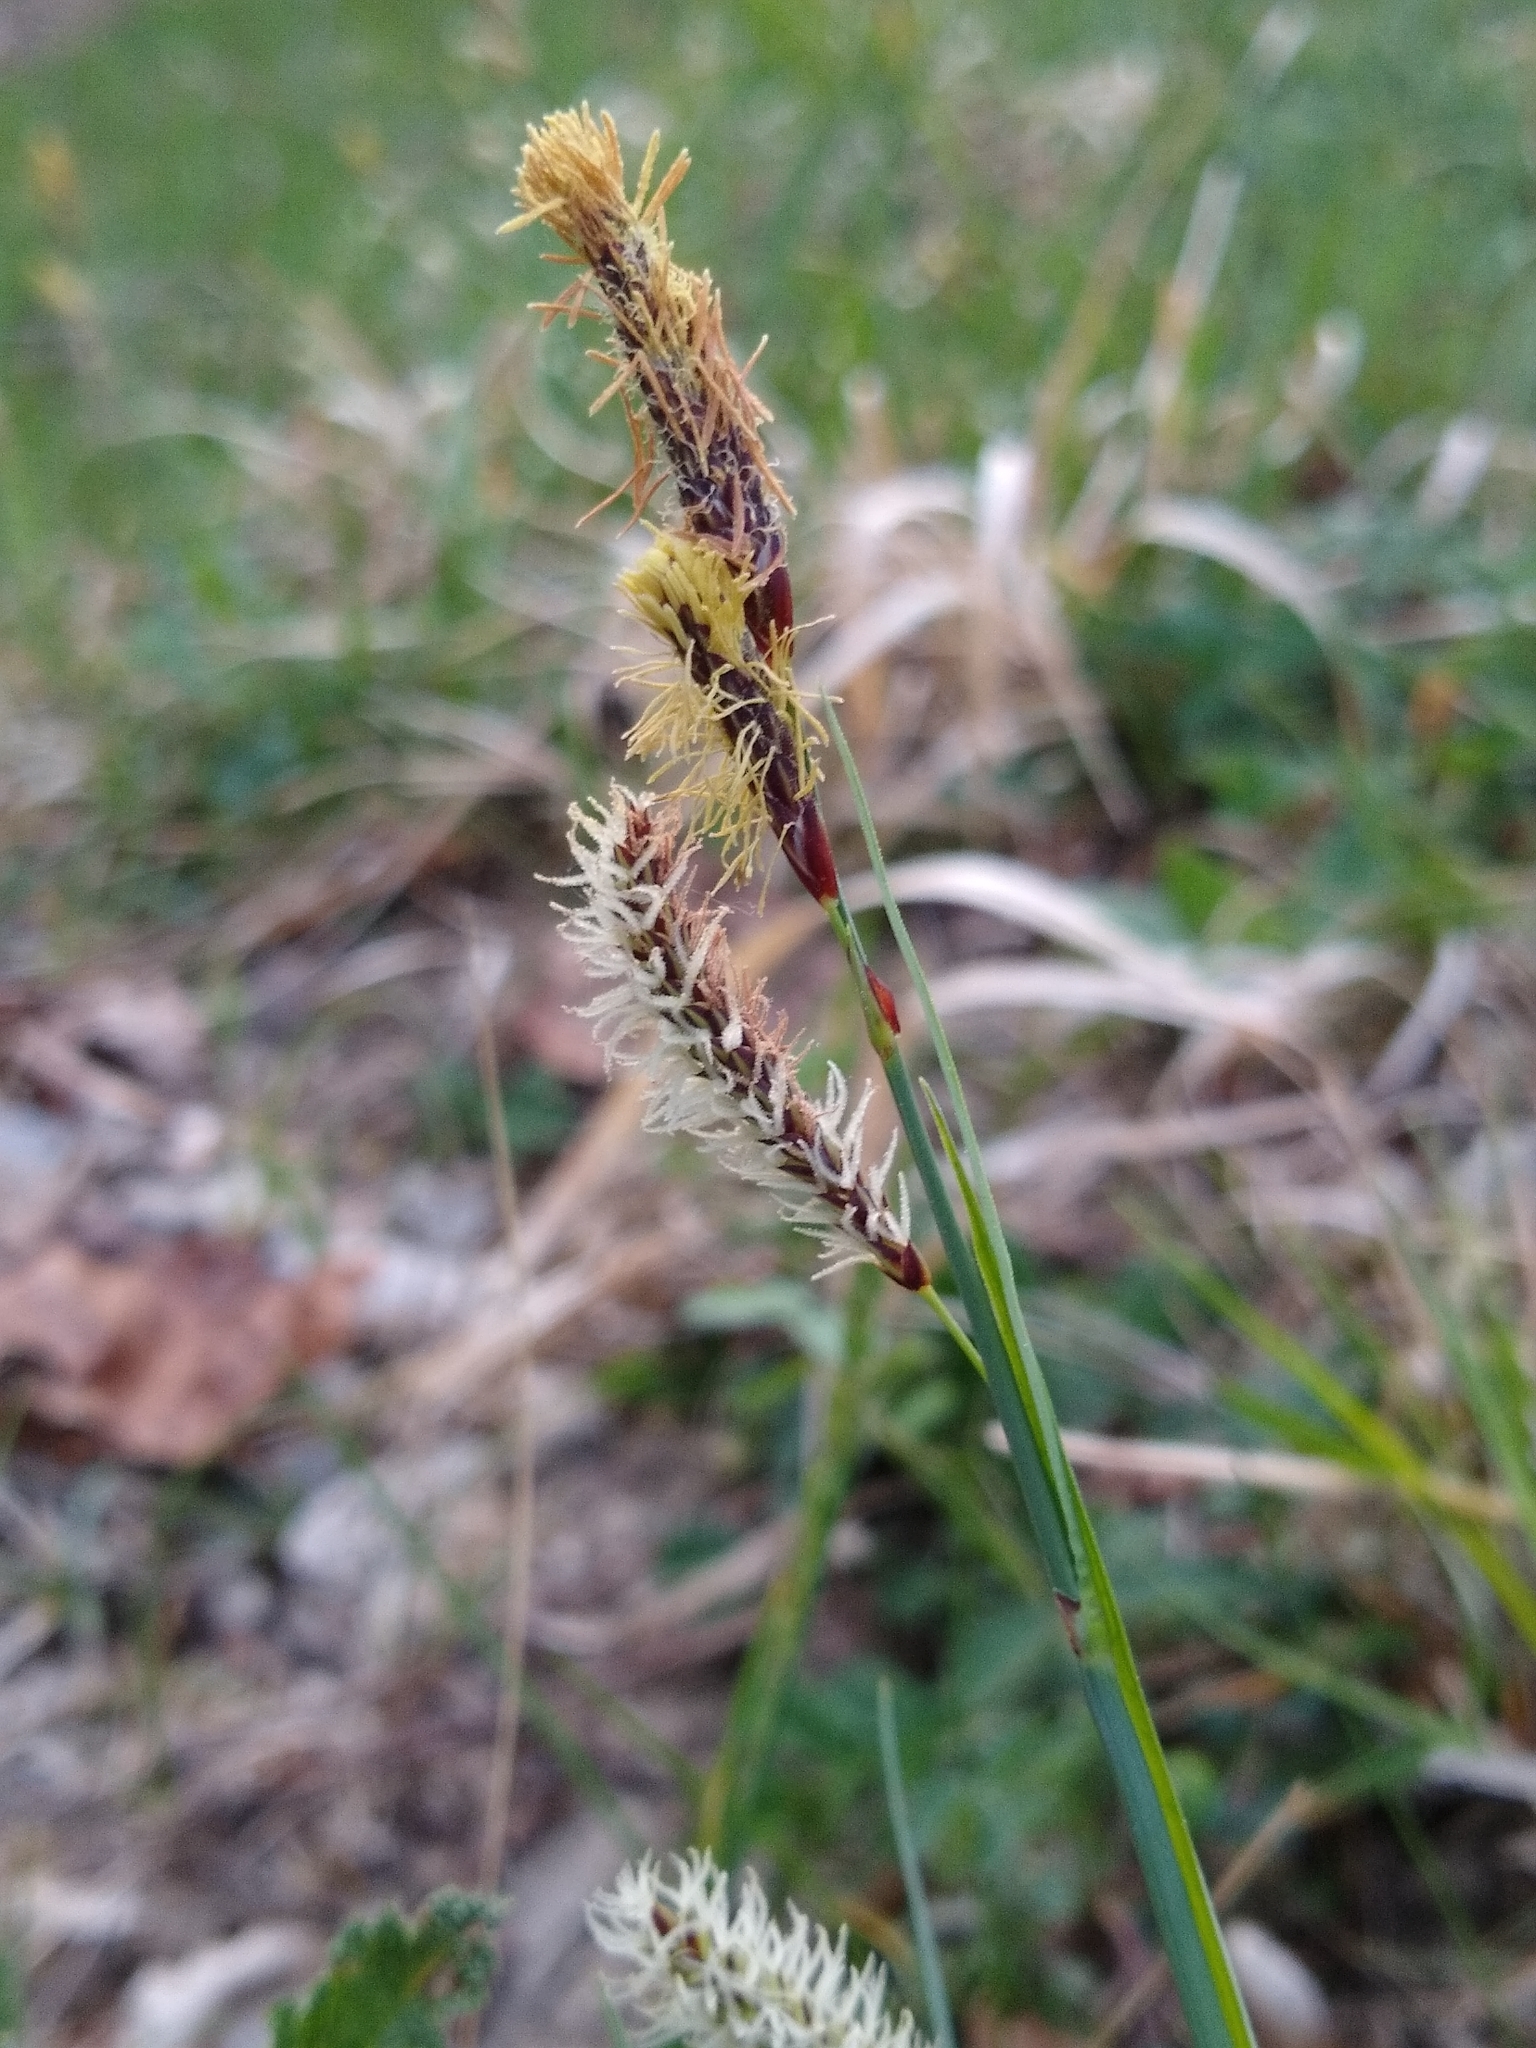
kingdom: Plantae
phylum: Tracheophyta
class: Liliopsida
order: Poales
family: Cyperaceae
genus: Carex
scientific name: Carex flacca
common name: Glaucous sedge
